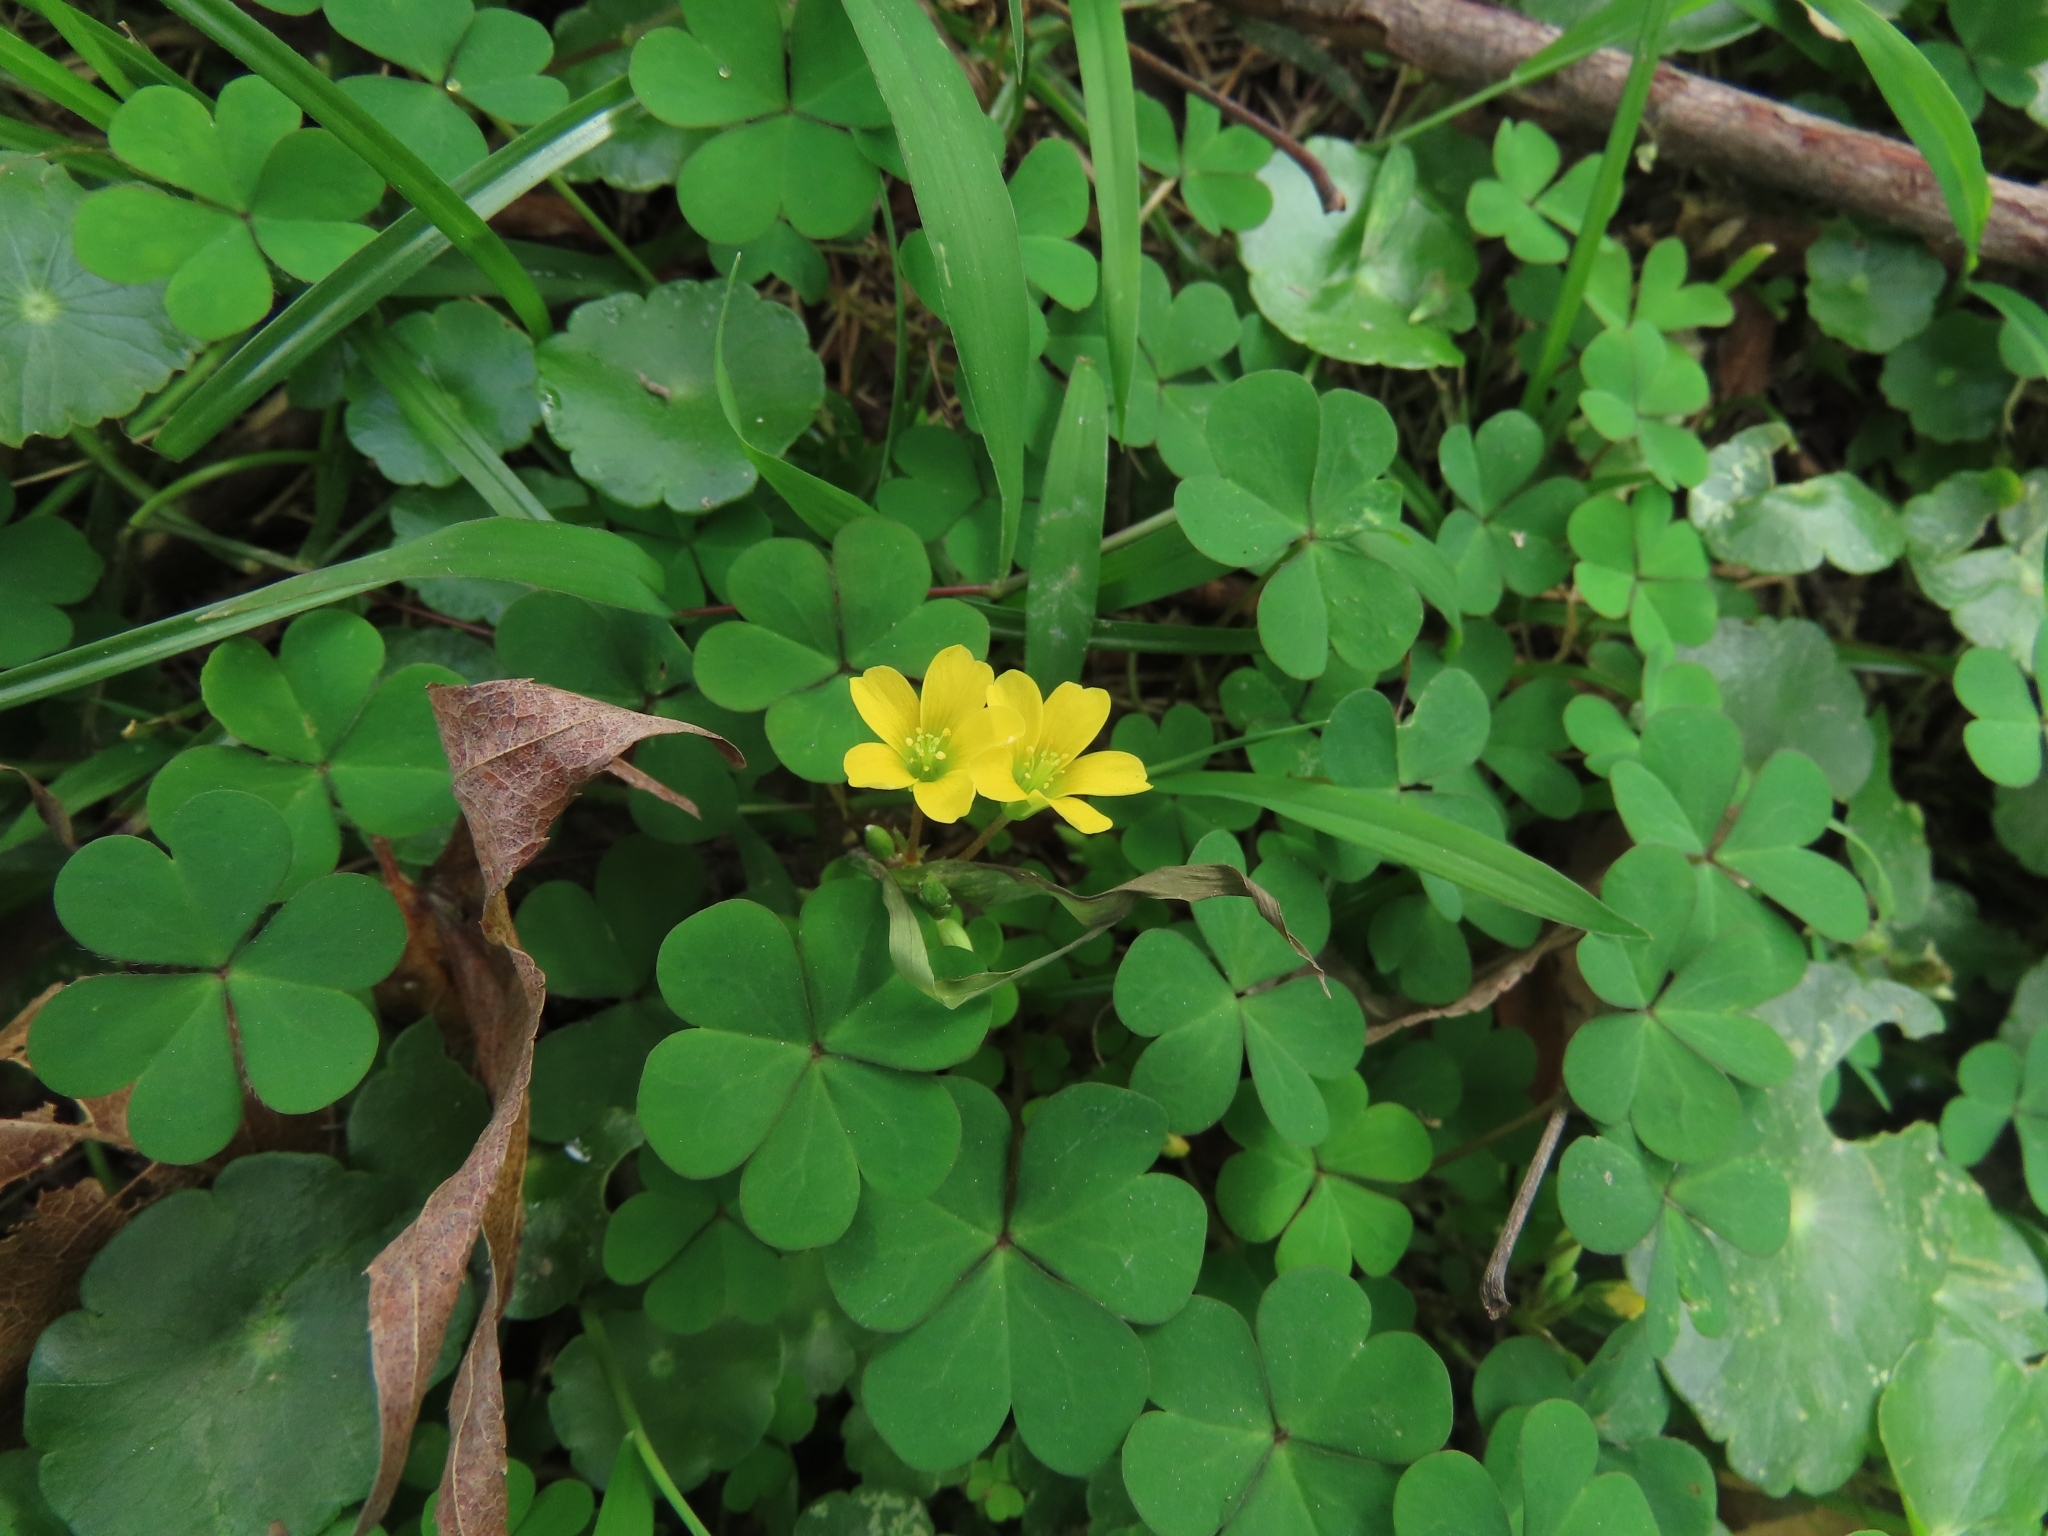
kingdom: Plantae
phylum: Tracheophyta
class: Magnoliopsida
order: Oxalidales
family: Oxalidaceae
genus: Oxalis
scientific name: Oxalis corniculata
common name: Procumbent yellow-sorrel
